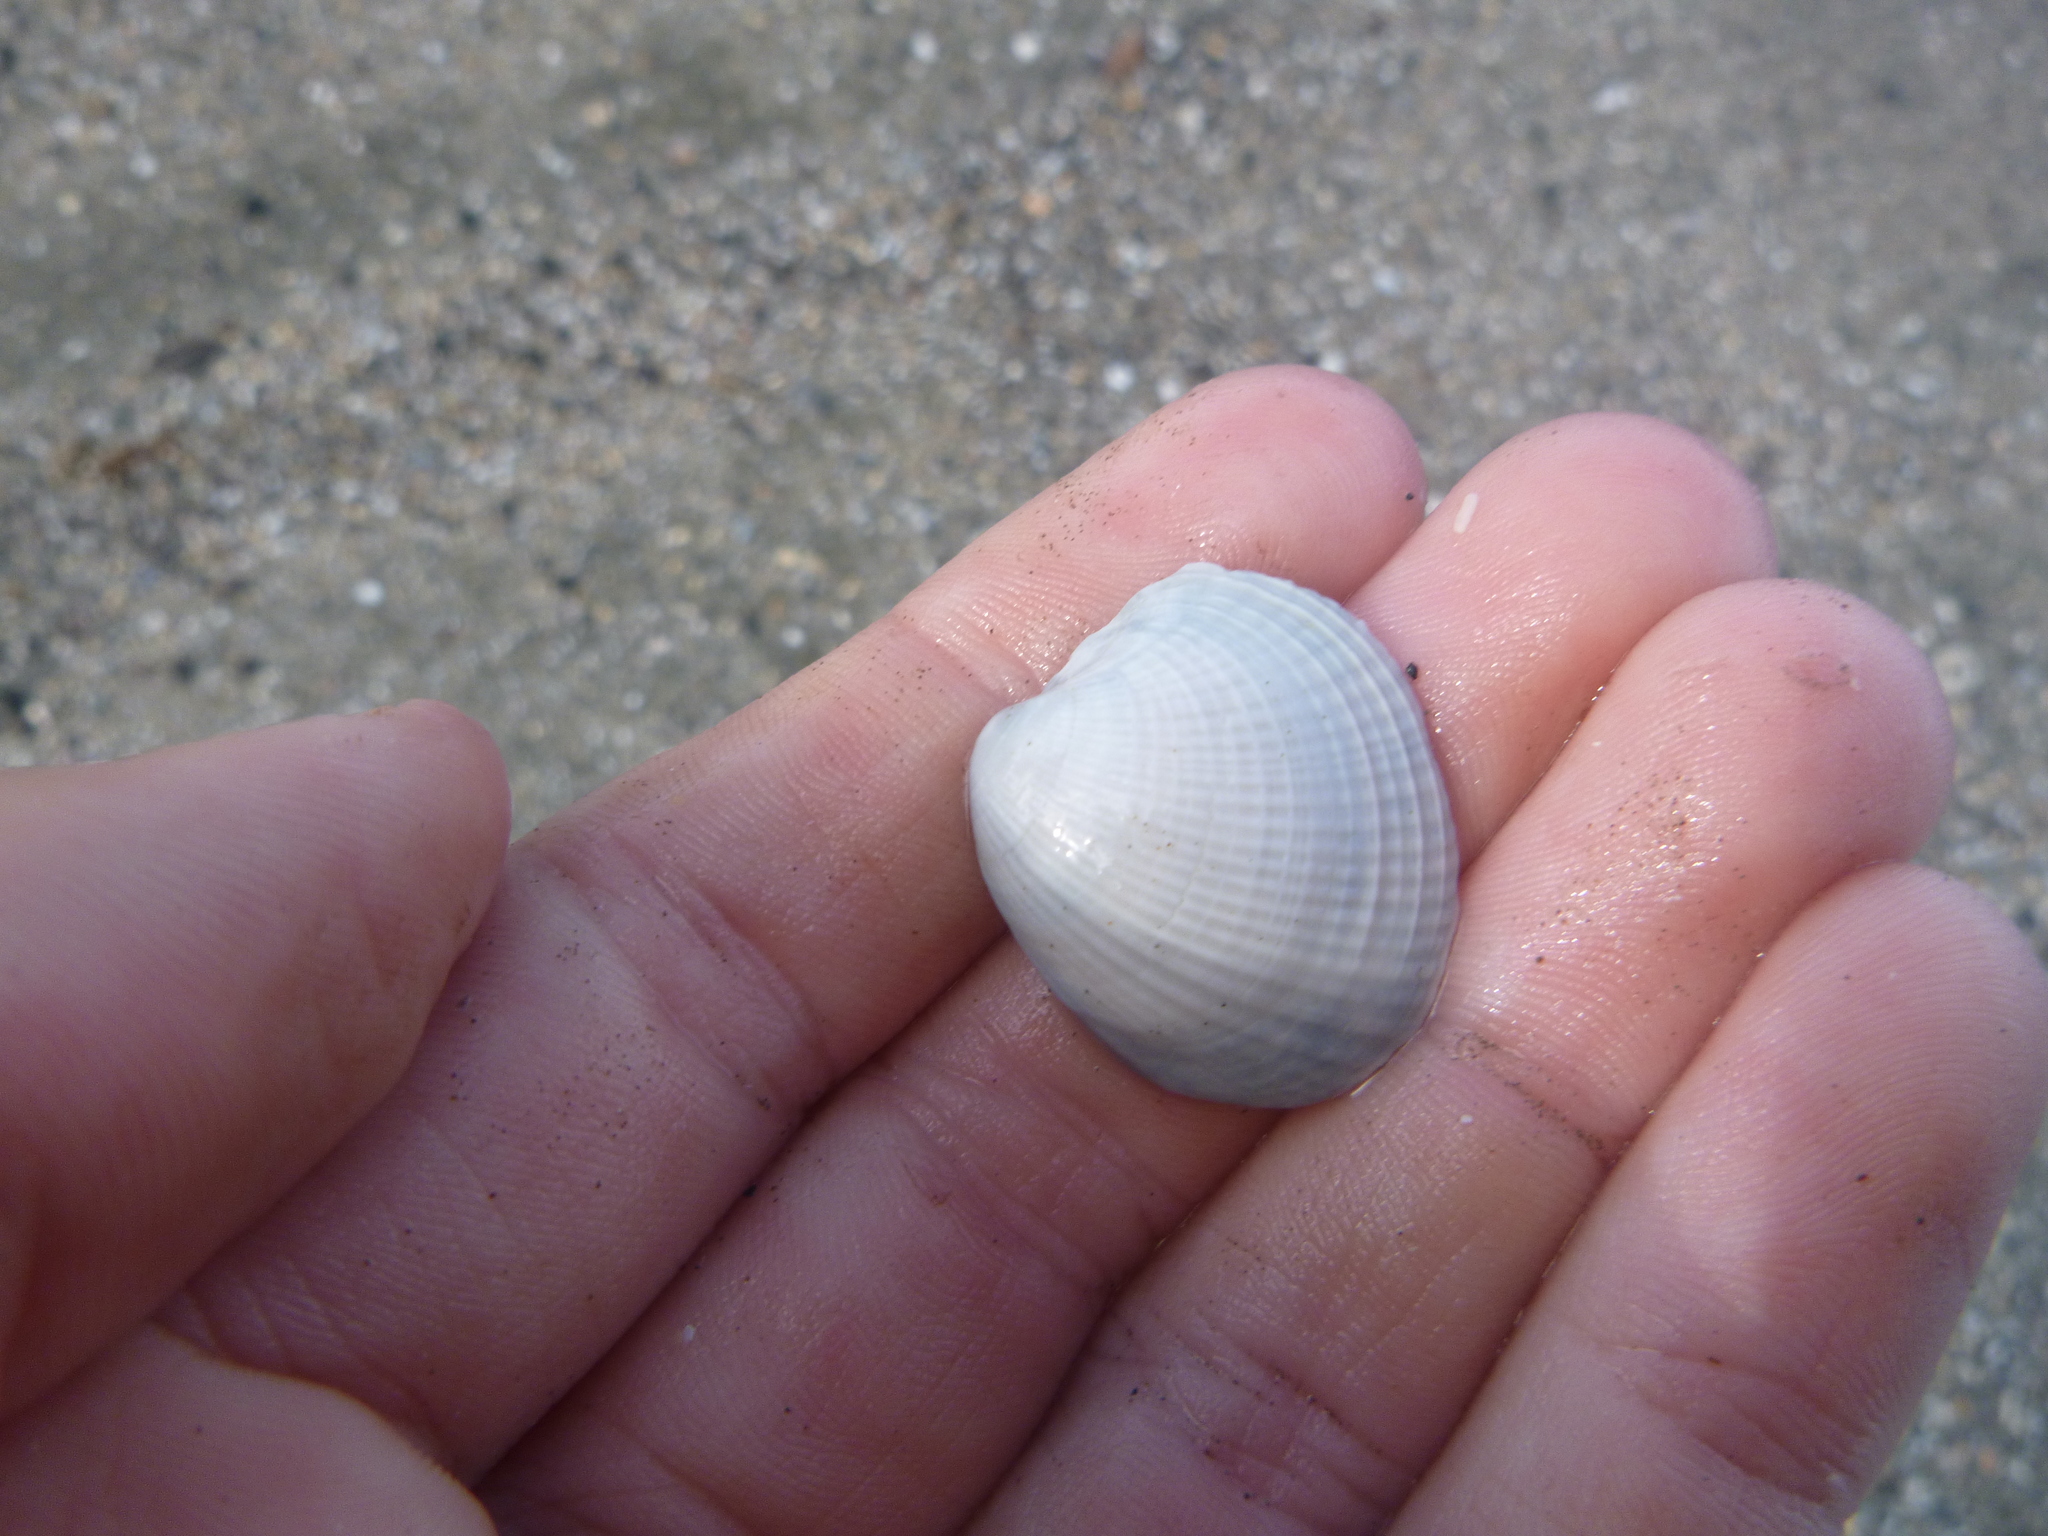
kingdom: Animalia
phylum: Mollusca
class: Bivalvia
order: Venerida
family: Veneridae
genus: Austrovenus
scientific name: Austrovenus stutchburyi
